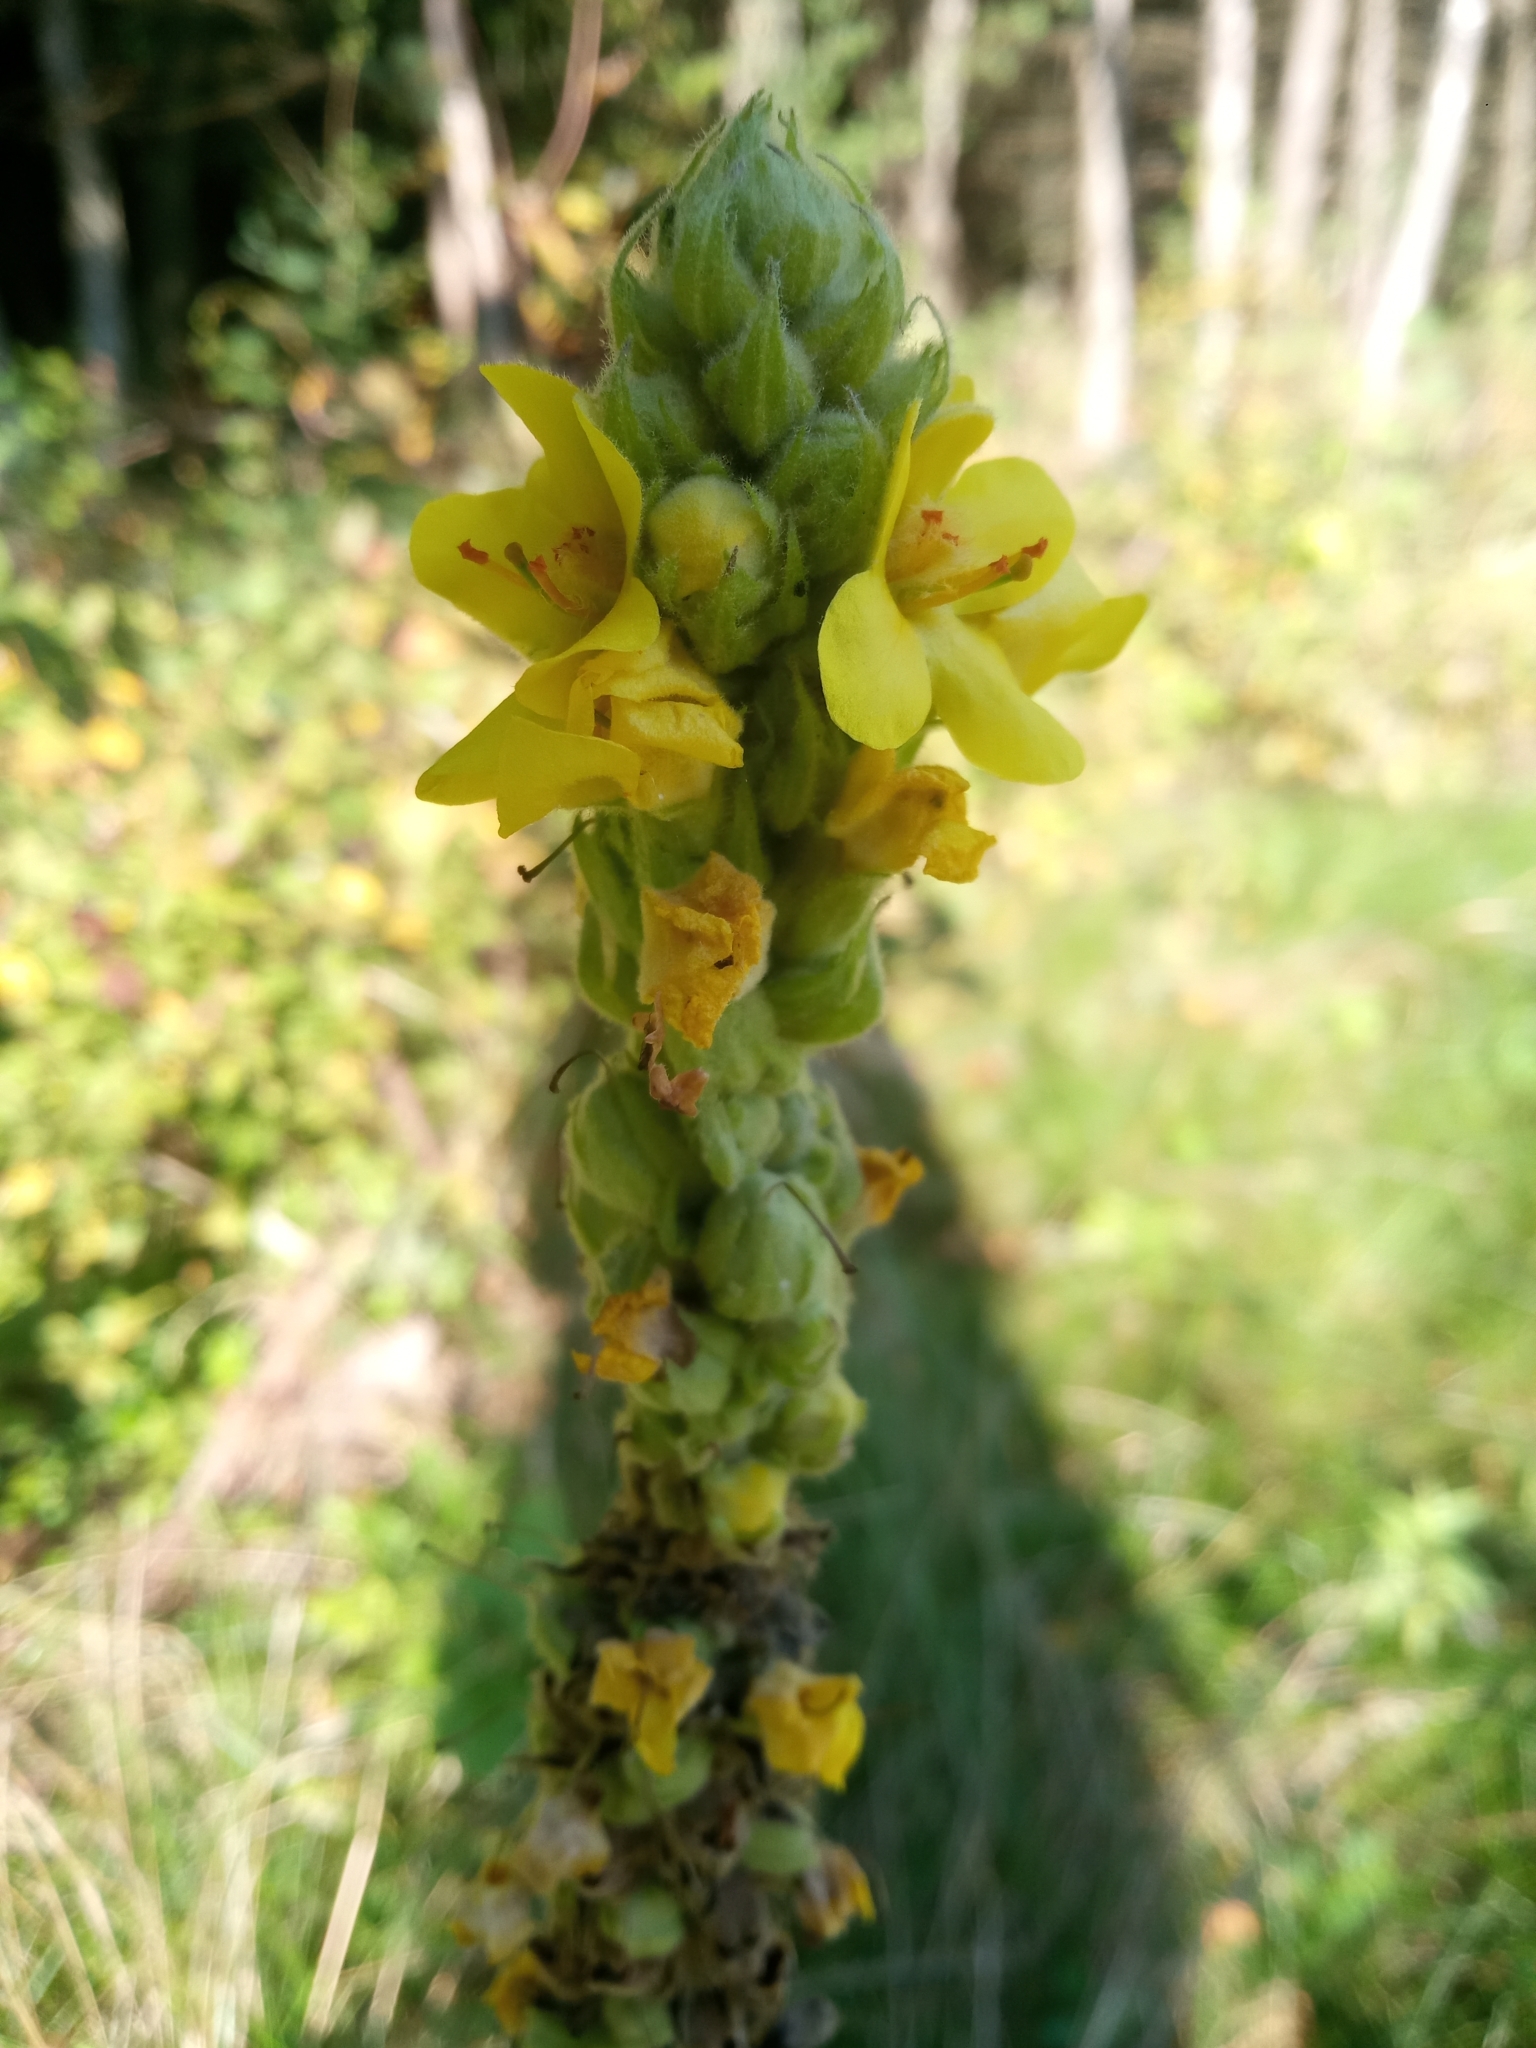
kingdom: Plantae
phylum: Tracheophyta
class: Magnoliopsida
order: Lamiales
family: Scrophulariaceae
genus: Verbascum
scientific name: Verbascum thapsus
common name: Common mullein
